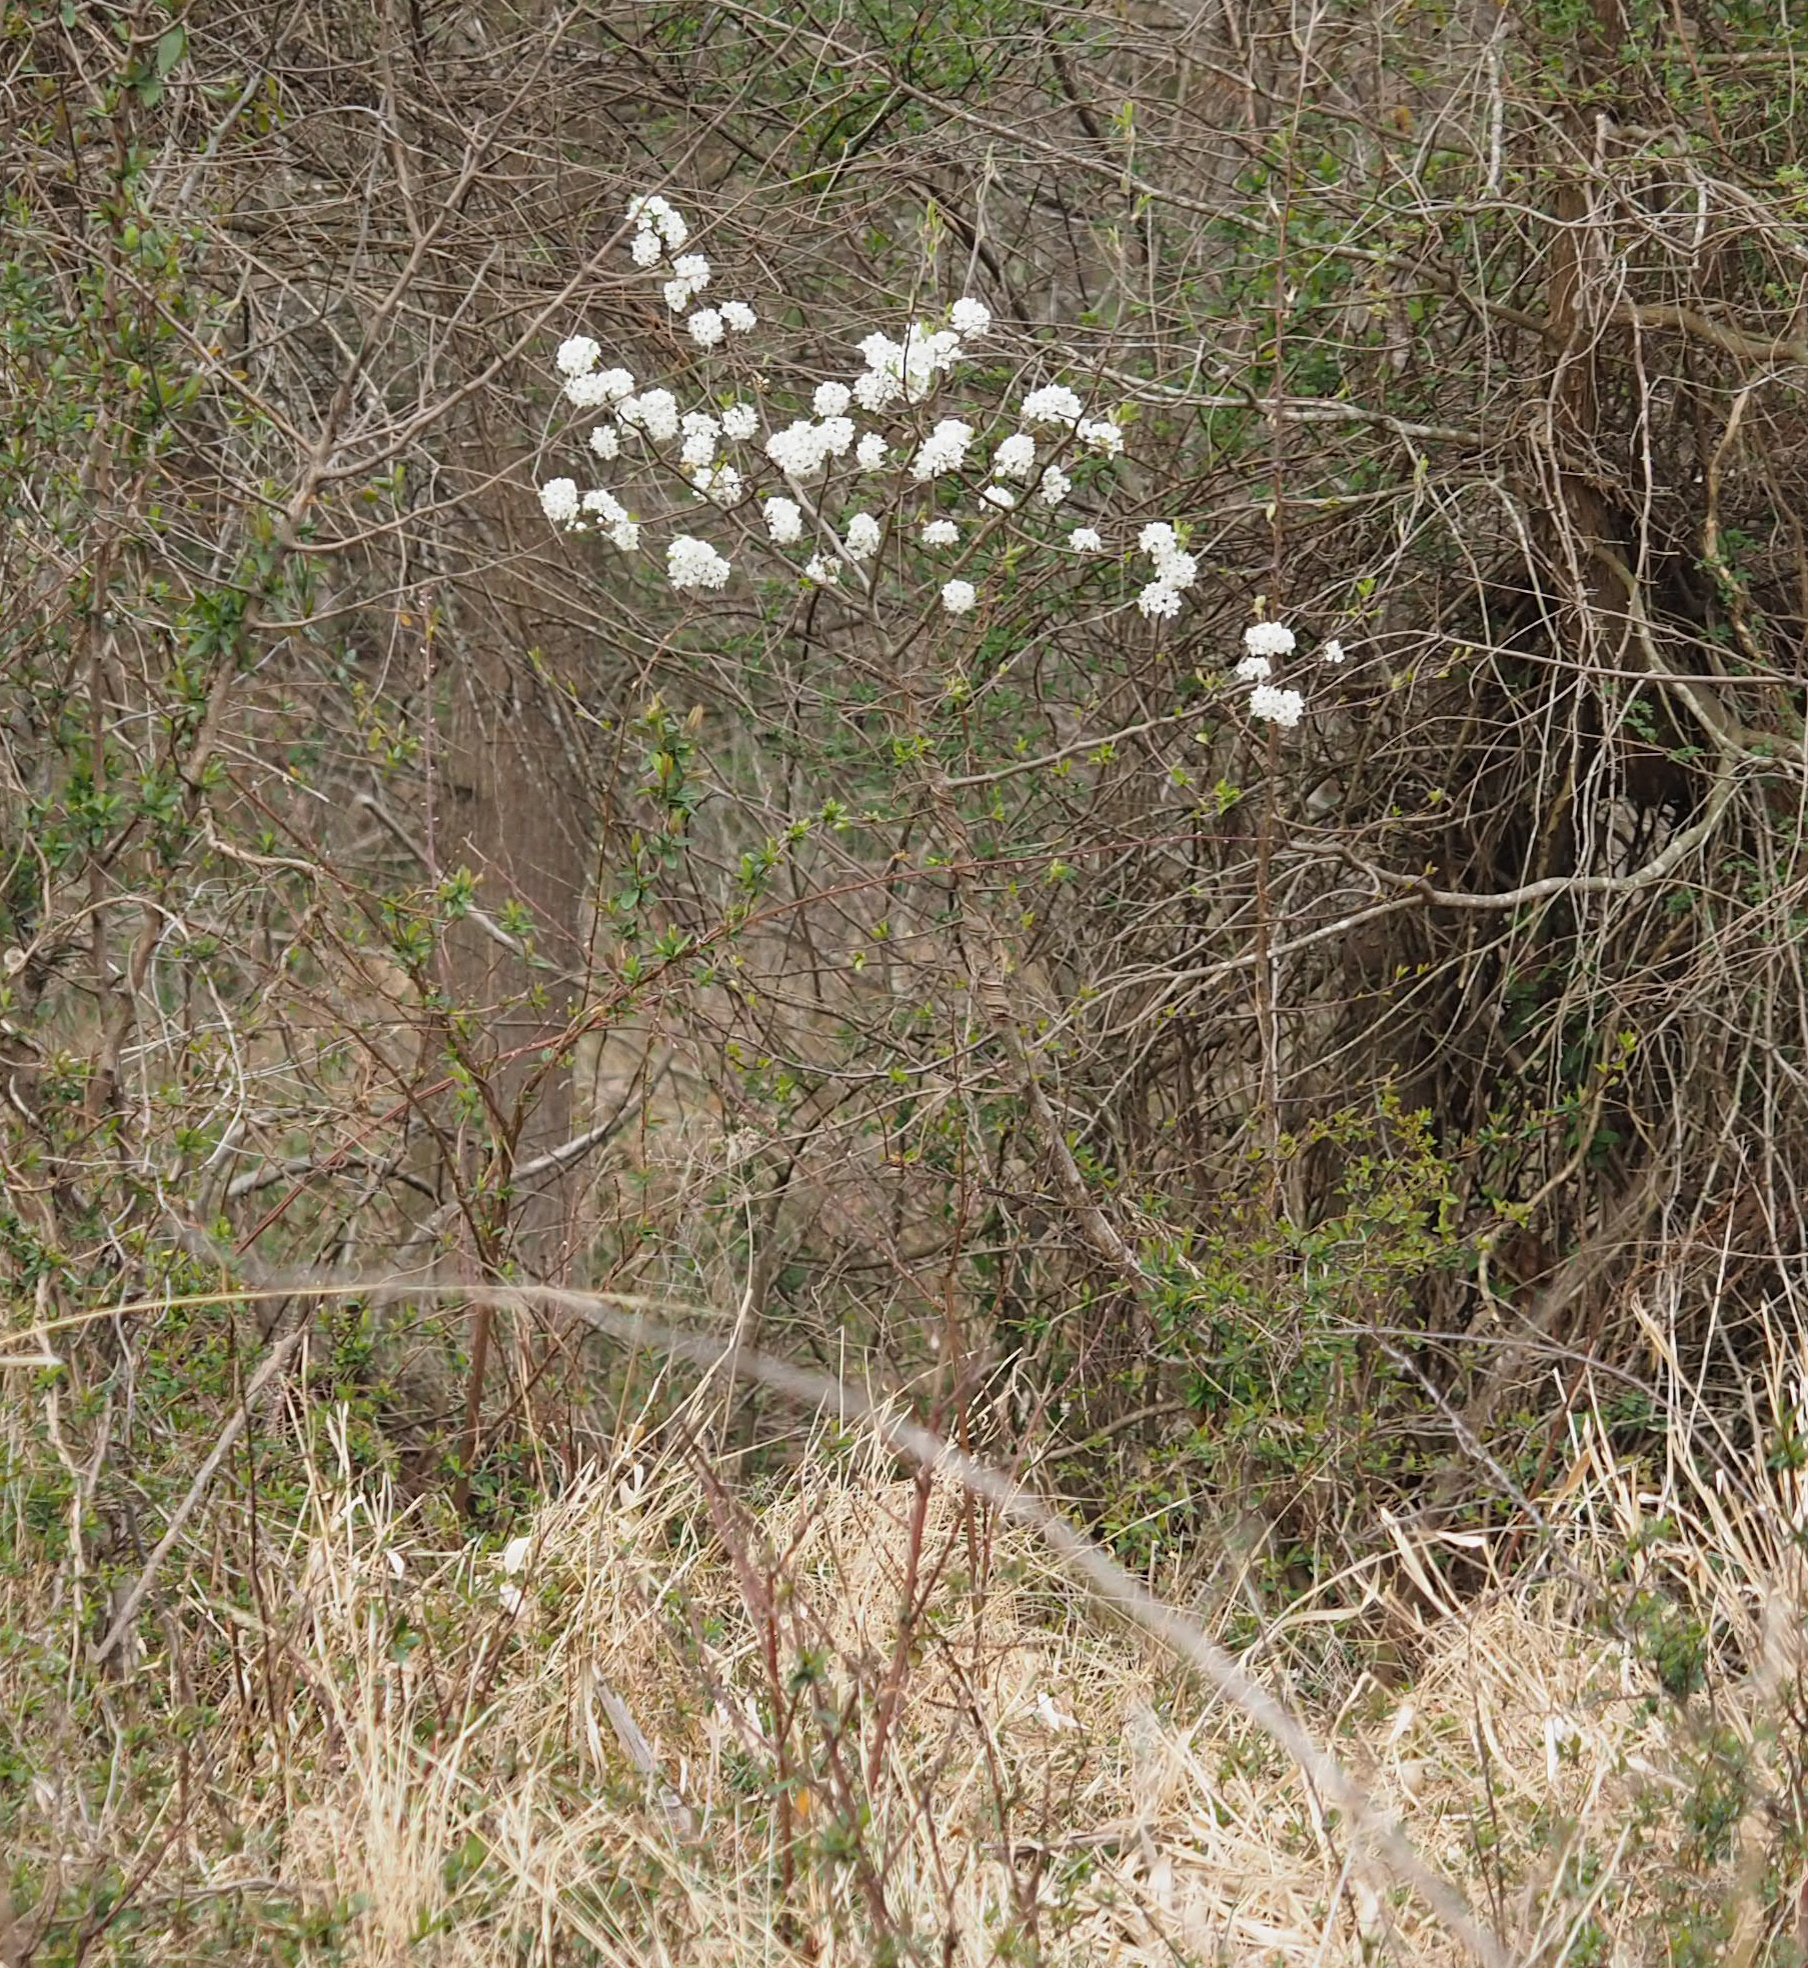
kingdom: Plantae
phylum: Tracheophyta
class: Magnoliopsida
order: Rosales
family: Rosaceae
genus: Pyrus
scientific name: Pyrus calleryana
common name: Callery pear
